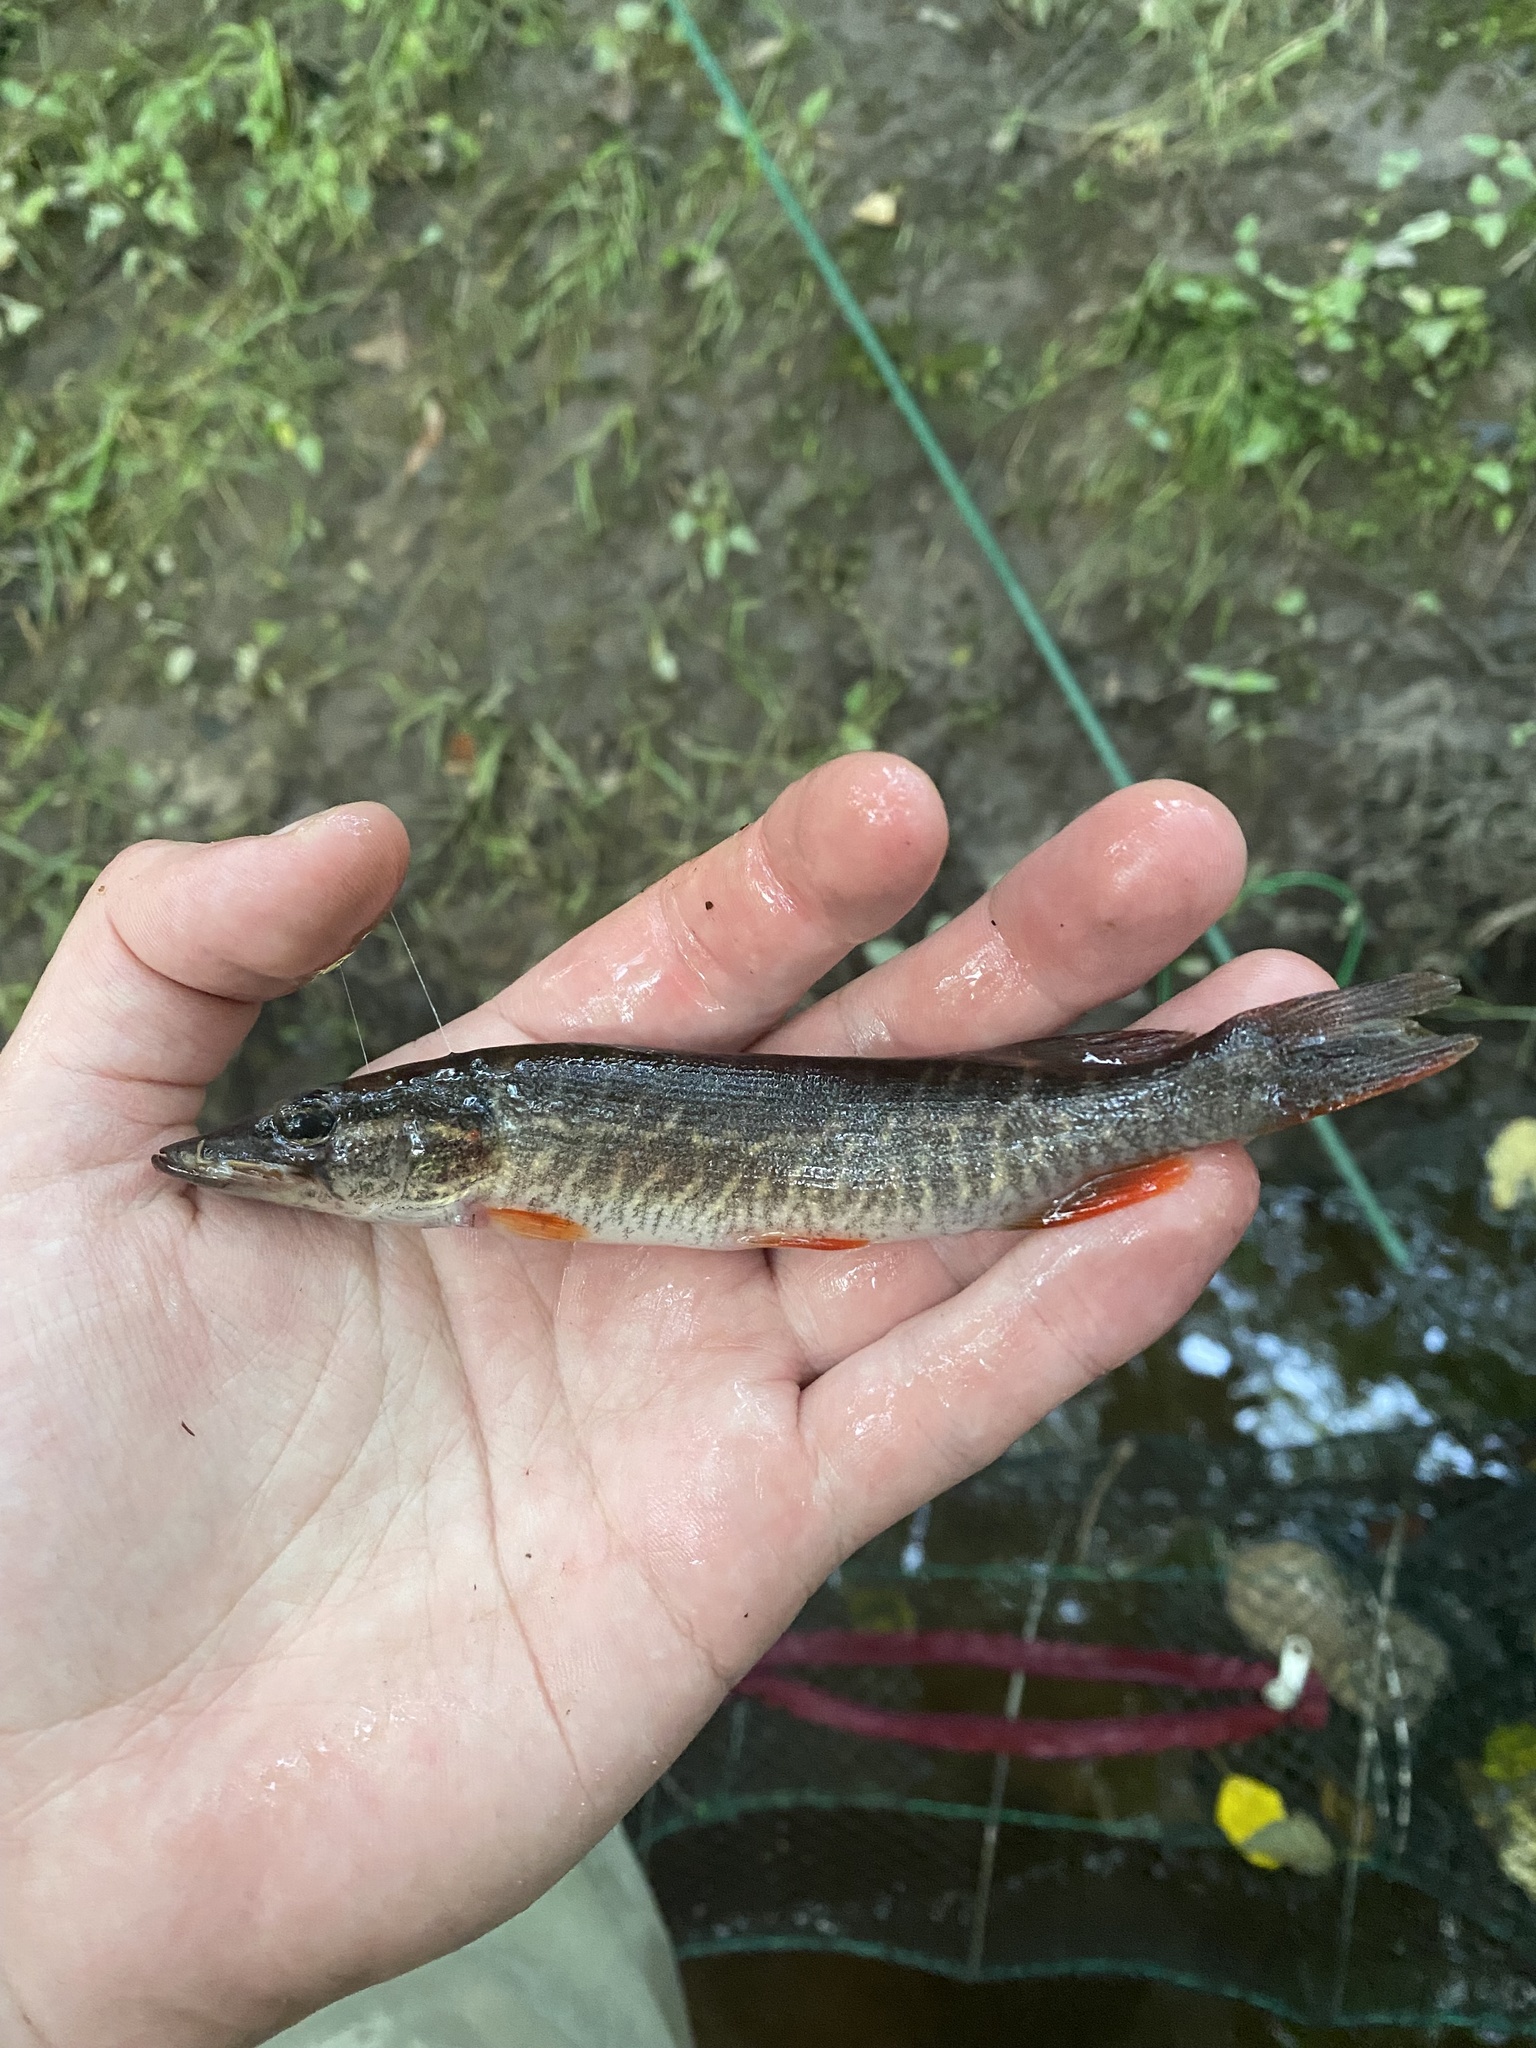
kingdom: Animalia
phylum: Chordata
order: Esociformes
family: Esocidae
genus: Esox
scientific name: Esox americanus
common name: Redfin pickerel
